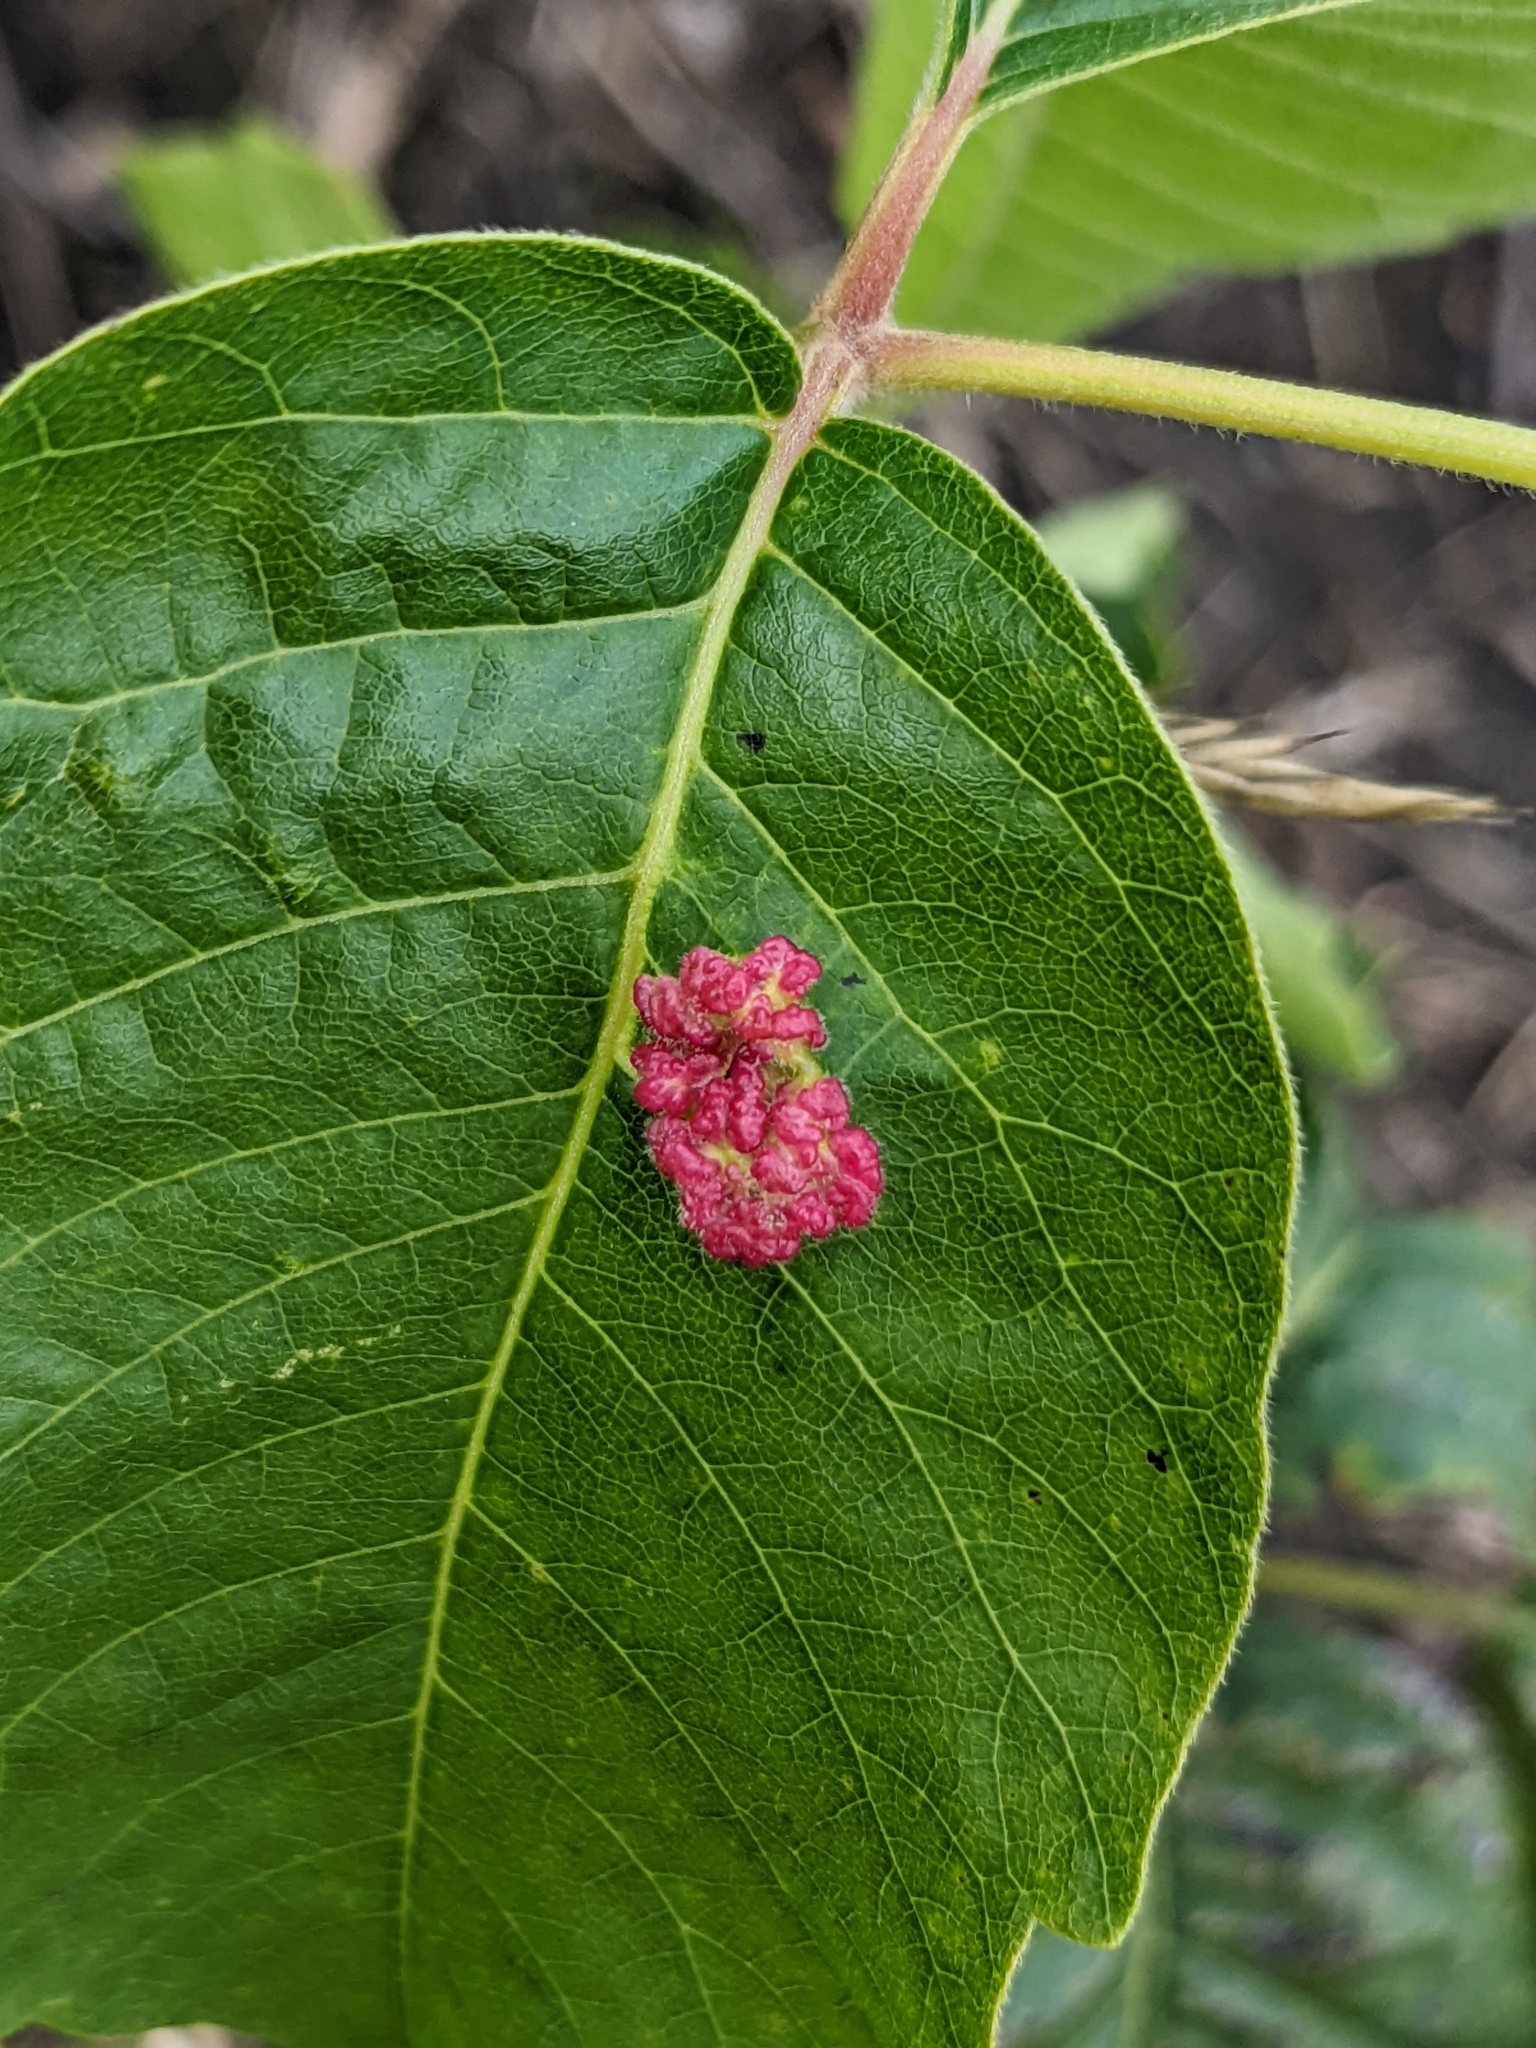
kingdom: Animalia
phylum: Arthropoda
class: Arachnida
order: Trombidiformes
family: Eriophyidae
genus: Aculops
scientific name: Aculops
